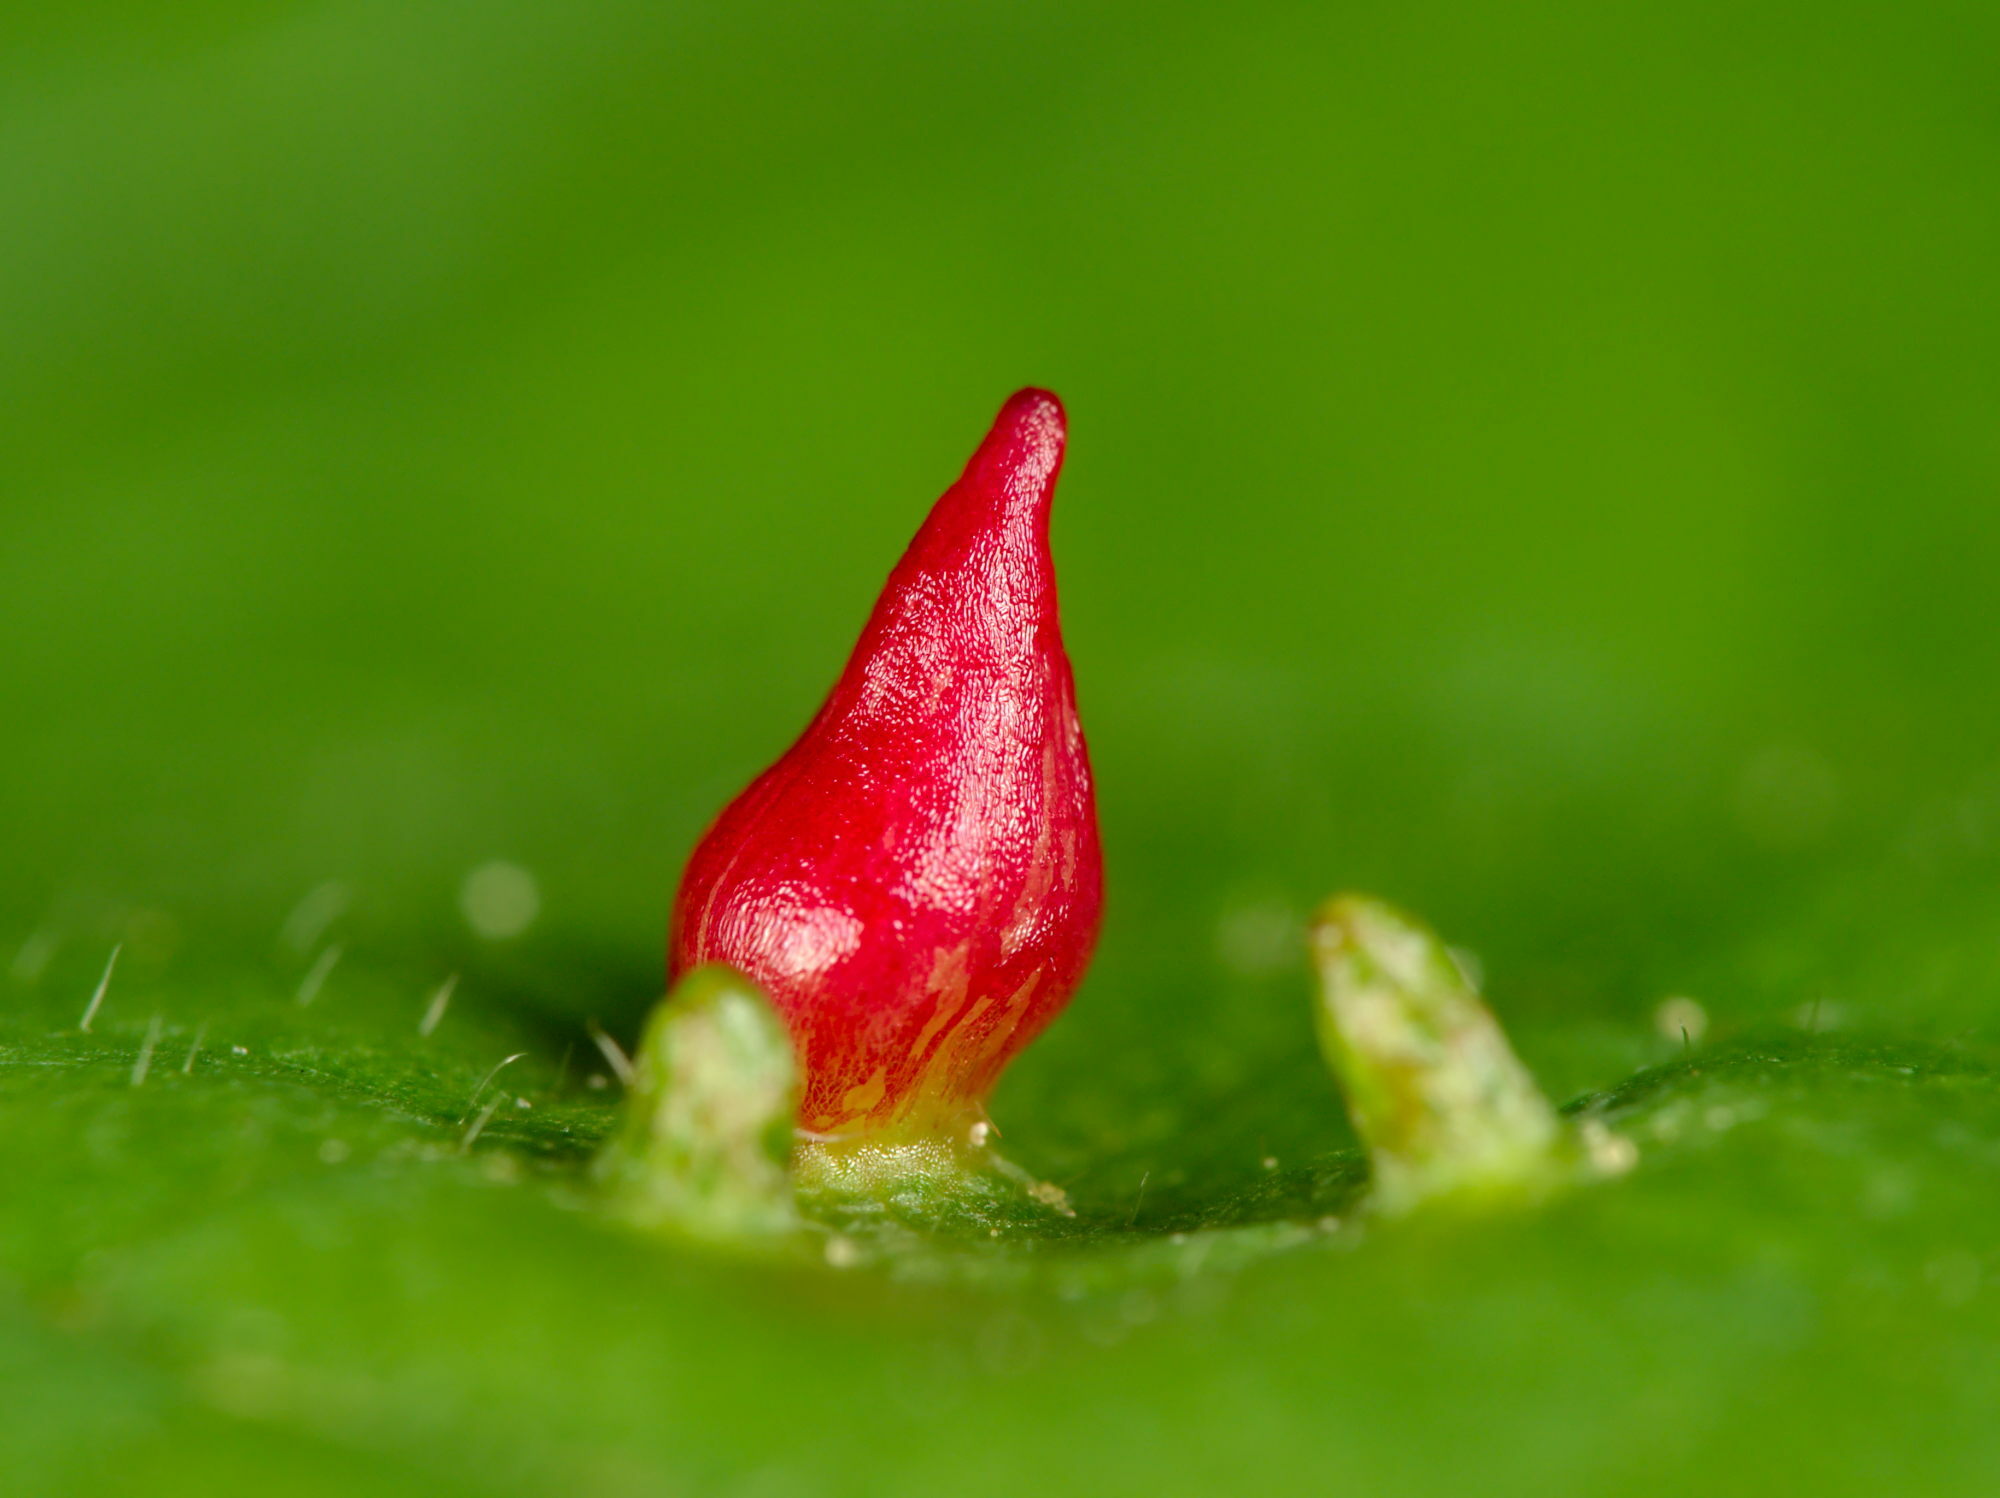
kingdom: Animalia
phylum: Arthropoda
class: Arachnida
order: Trombidiformes
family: Eriophyidae
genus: Eriophyes
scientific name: Eriophyes tiliae
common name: Red nail gall mite
